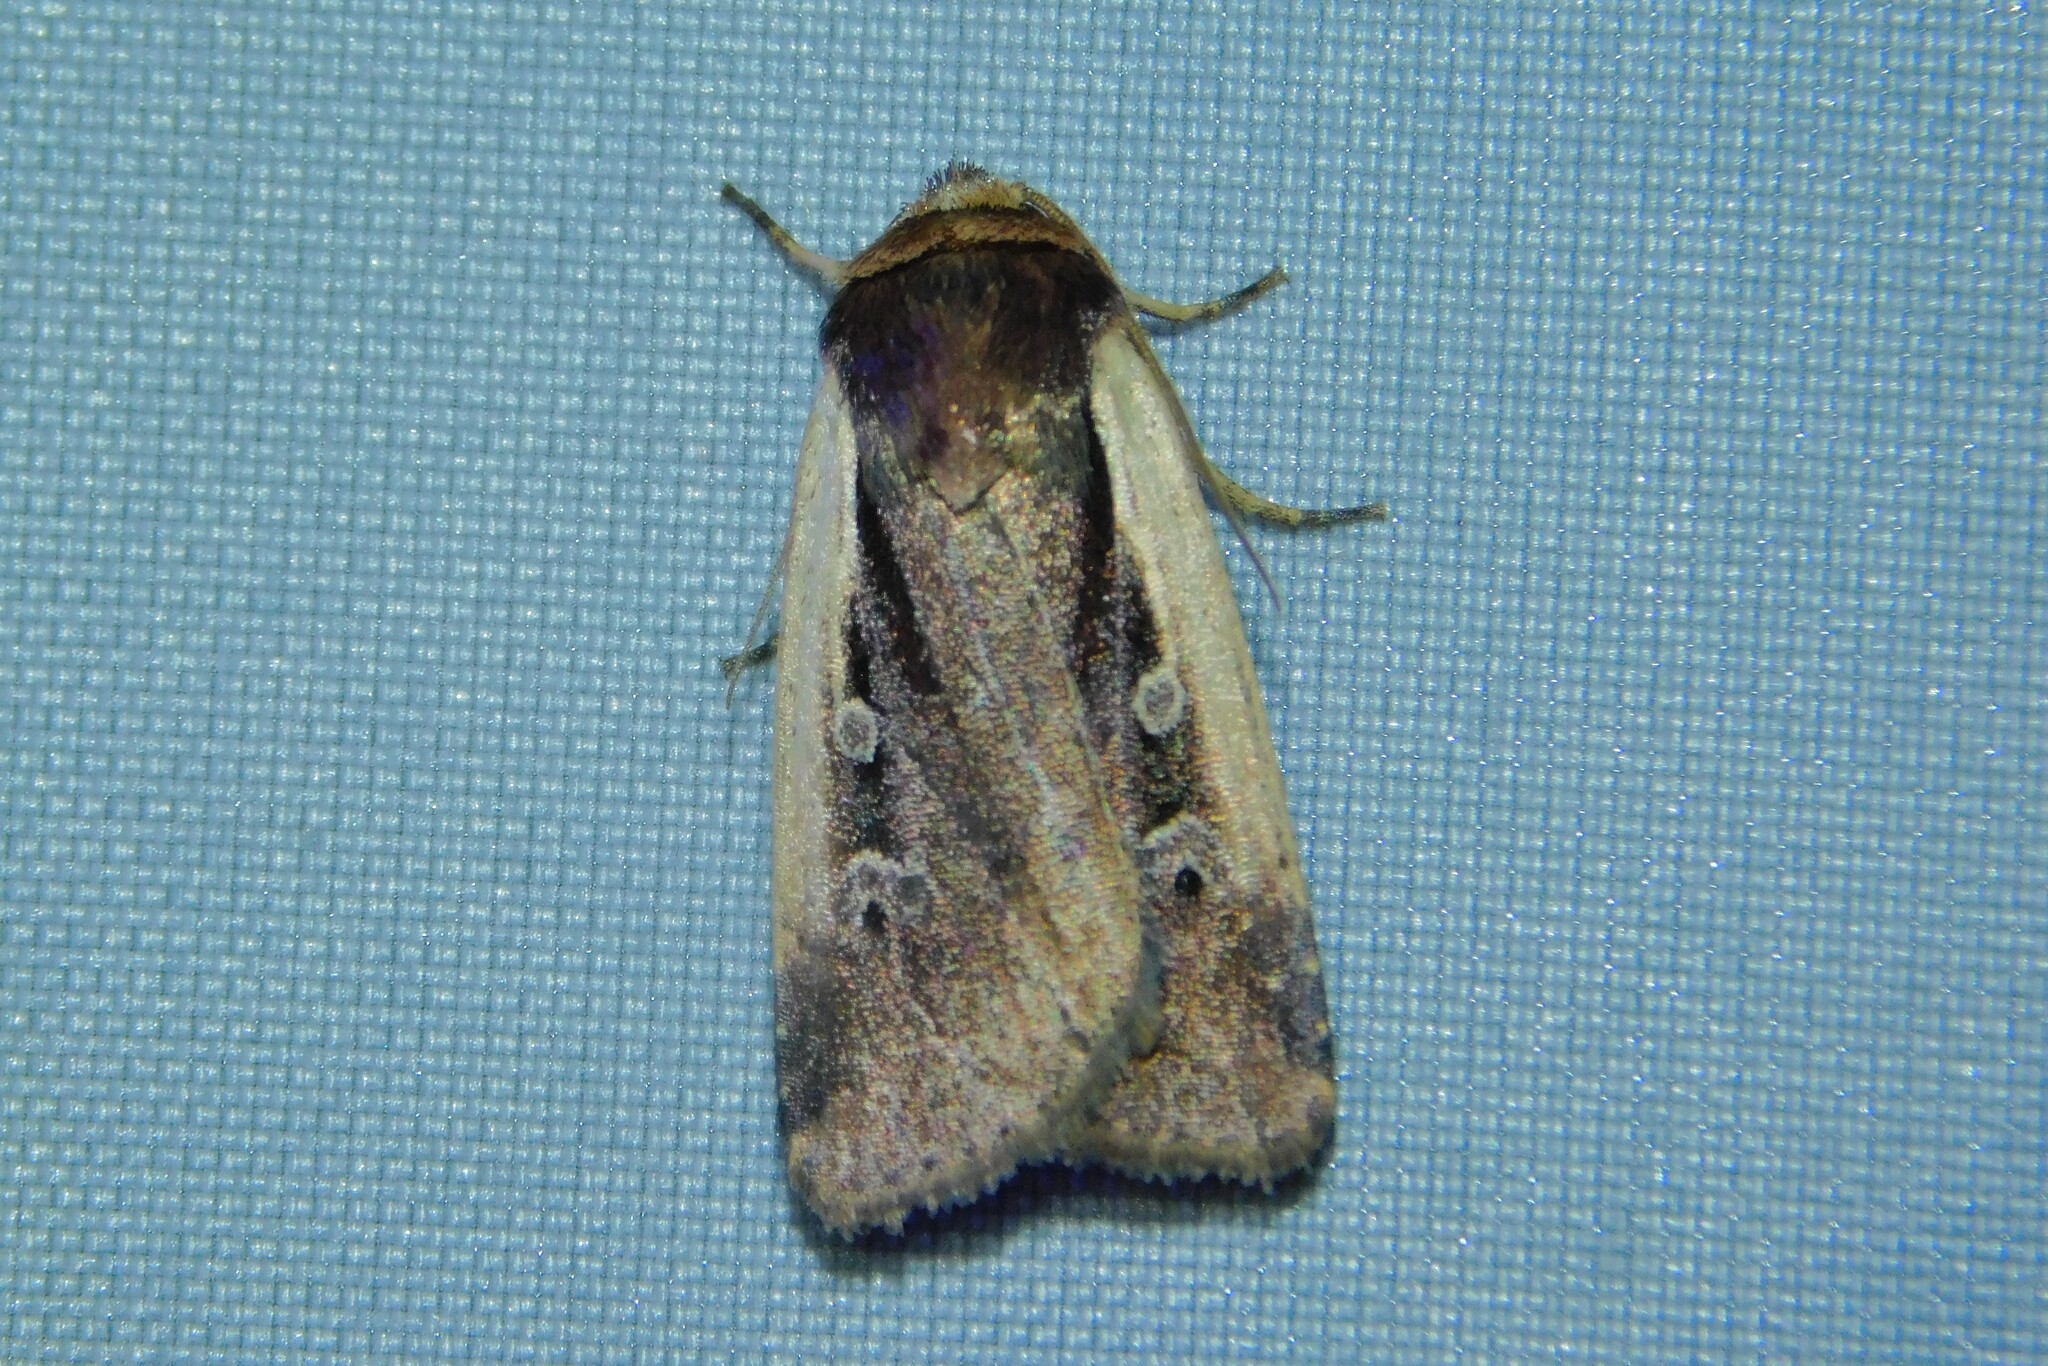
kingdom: Animalia
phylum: Arthropoda
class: Insecta
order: Lepidoptera
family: Noctuidae
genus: Ochropleura
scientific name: Ochropleura plecta
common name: Flame shoulder
